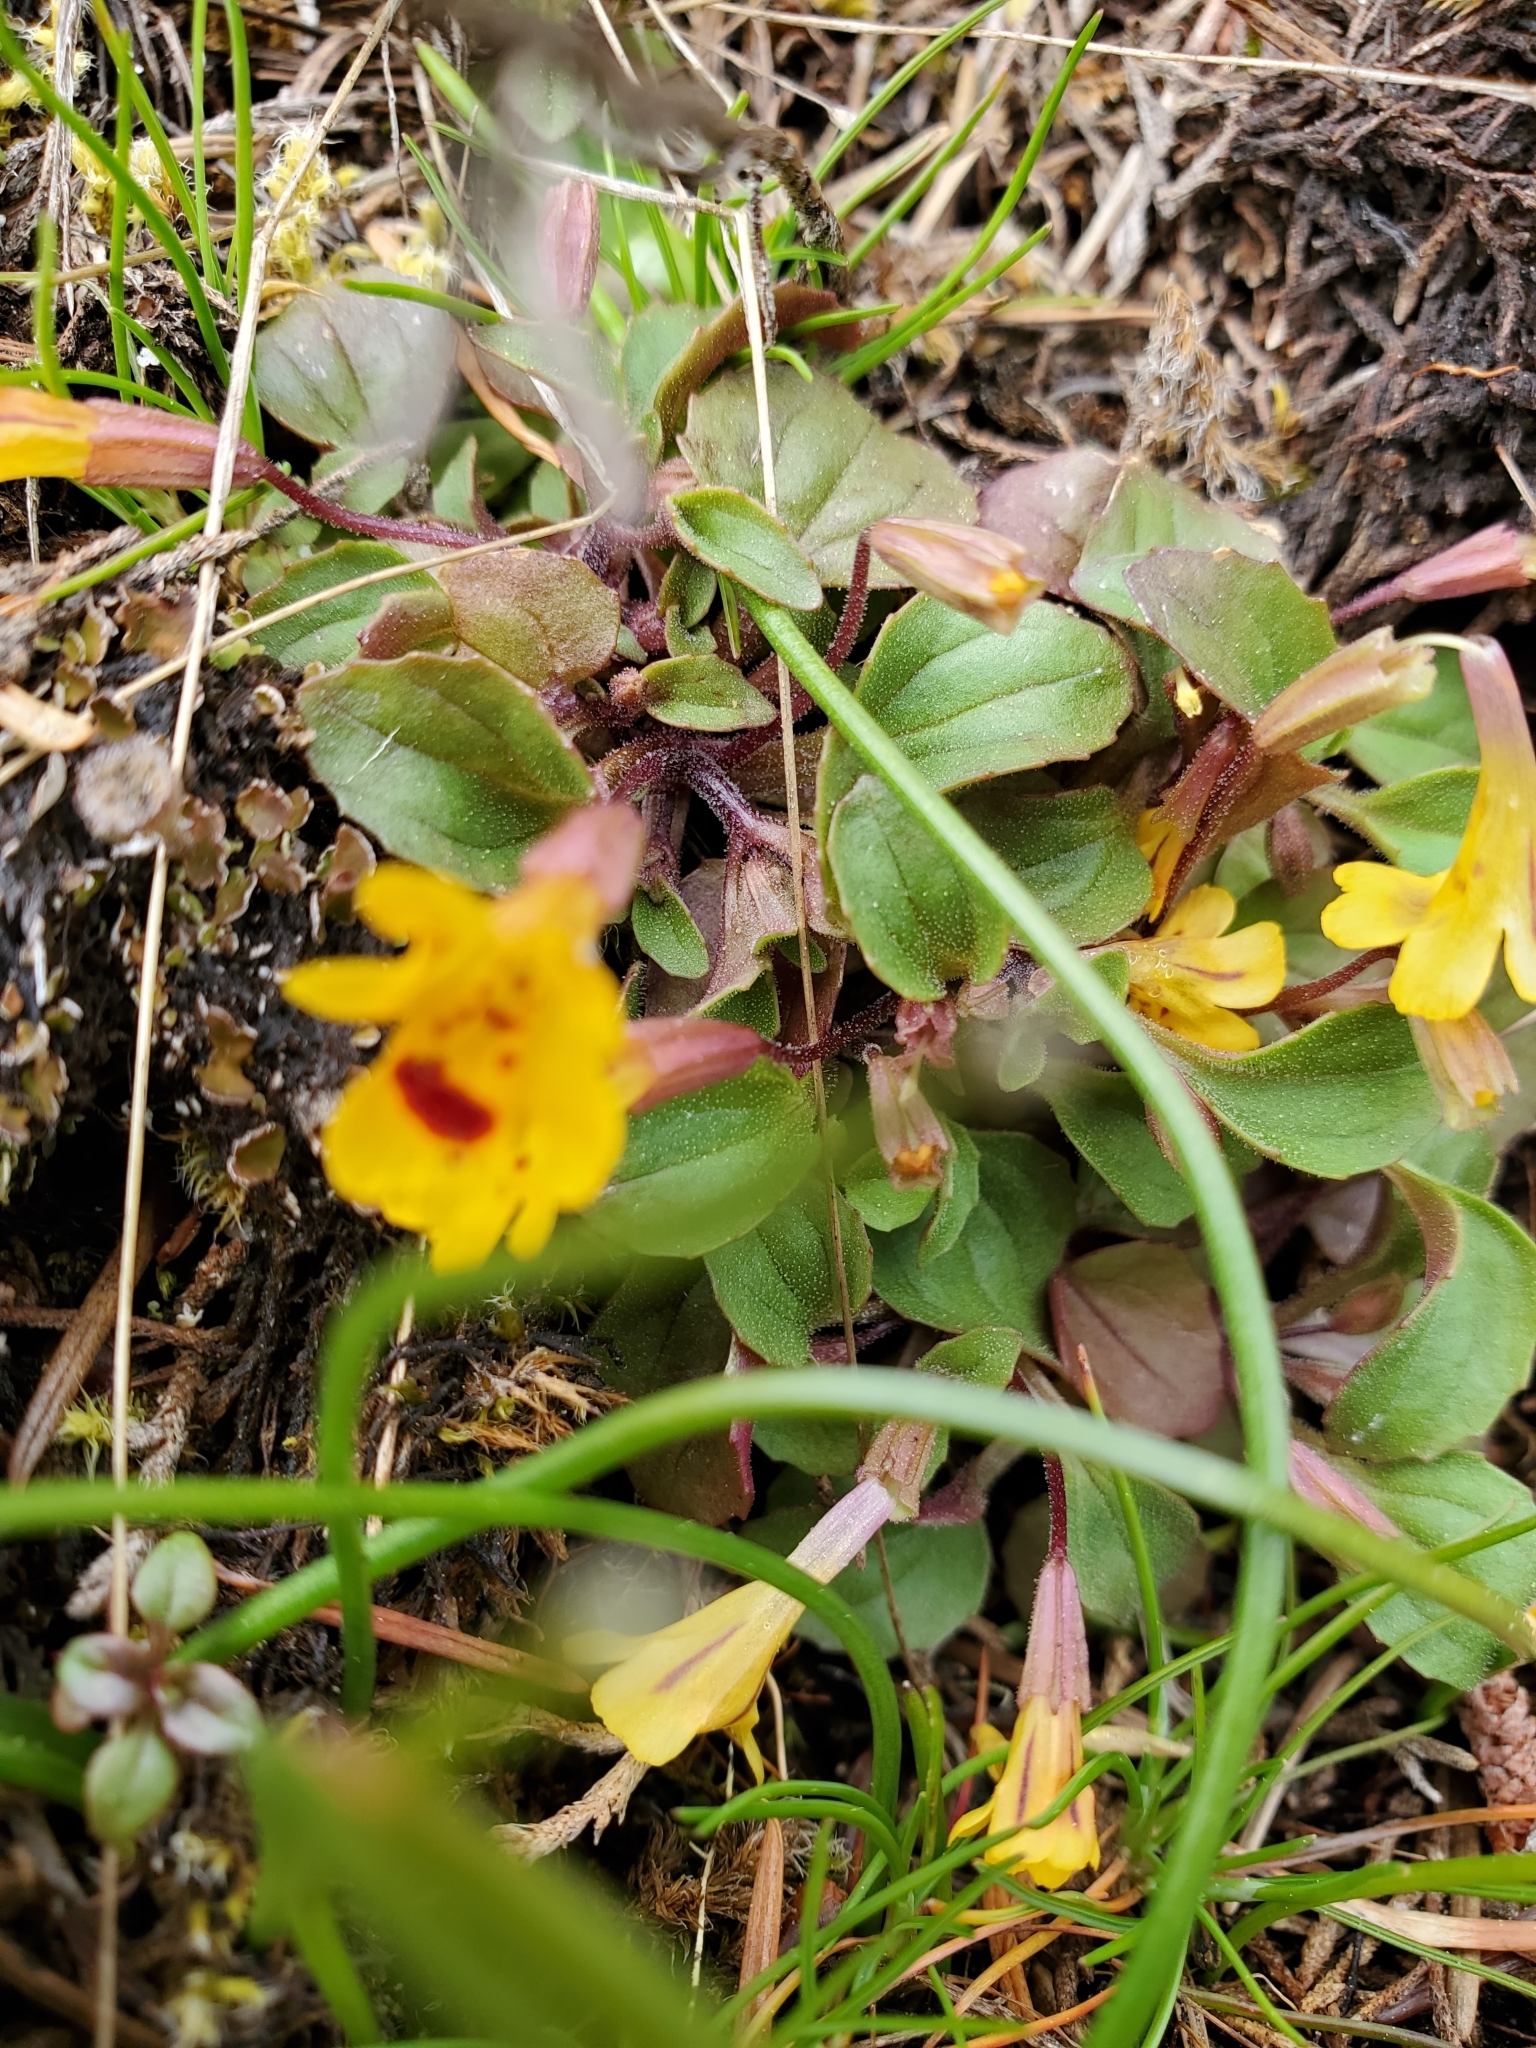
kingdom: Plantae
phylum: Tracheophyta
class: Magnoliopsida
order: Lamiales
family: Phrymaceae
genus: Erythranthe
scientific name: Erythranthe alsinoides
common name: Chickweed monkeyflower
